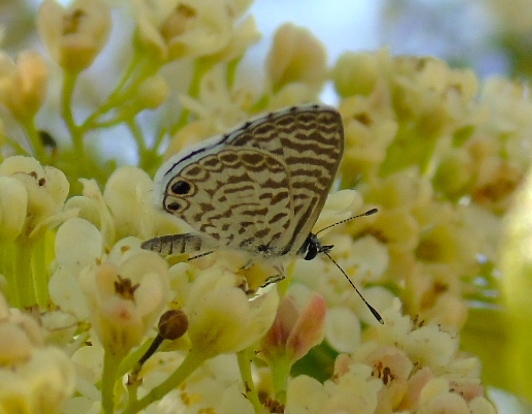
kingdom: Animalia
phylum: Arthropoda
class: Insecta
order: Lepidoptera
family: Lycaenidae
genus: Leptotes
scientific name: Leptotes cassius
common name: Cassius blue
